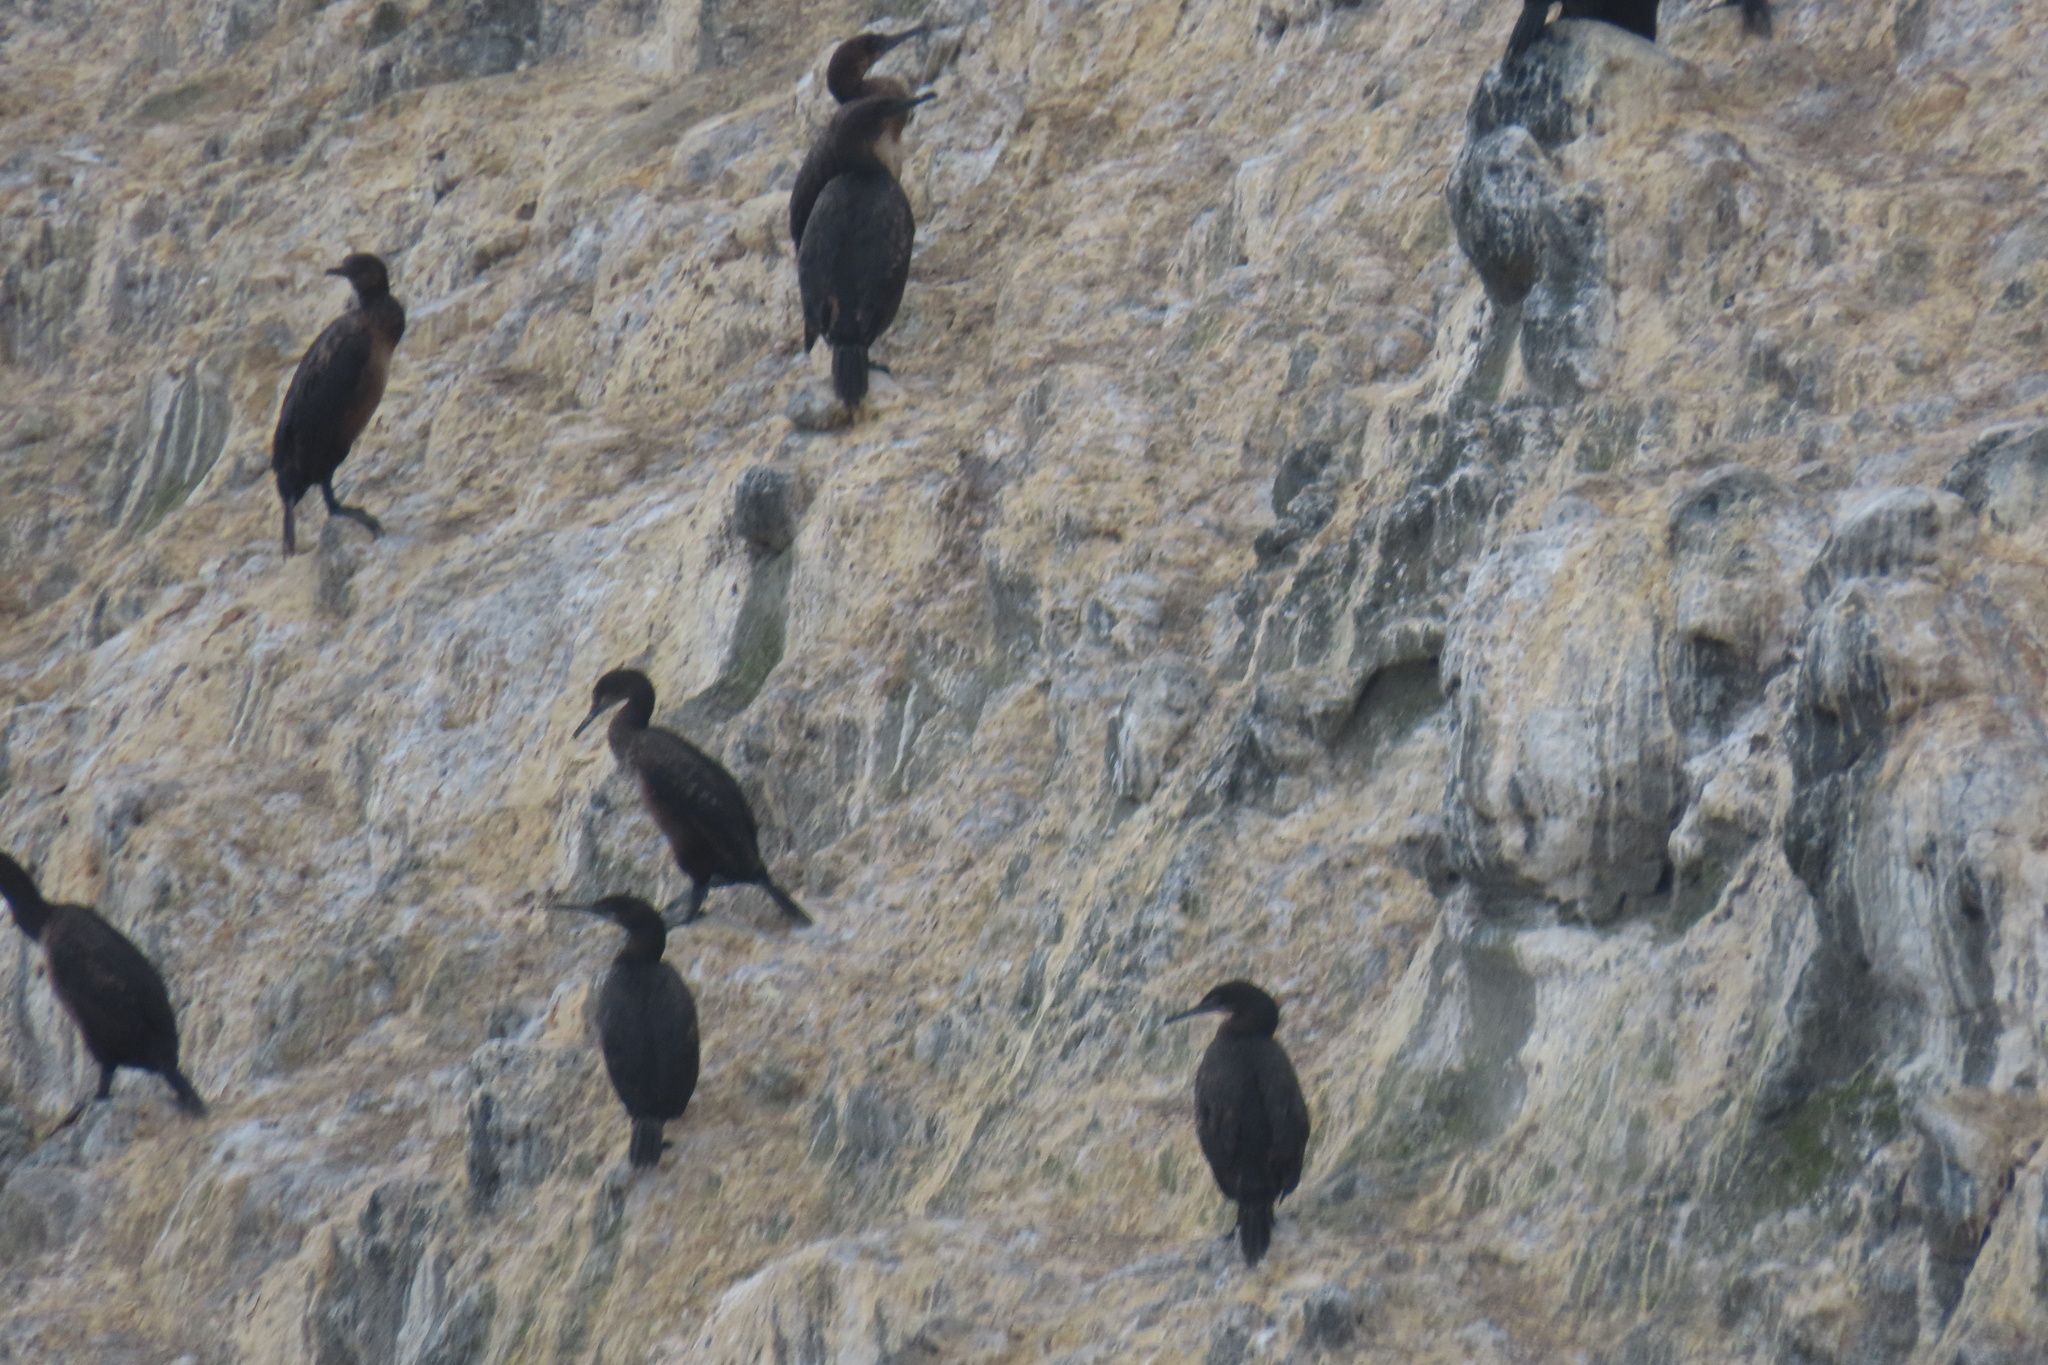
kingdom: Animalia
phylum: Chordata
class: Aves
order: Suliformes
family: Phalacrocoracidae
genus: Urile
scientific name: Urile penicillatus
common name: Brandt's cormorant
